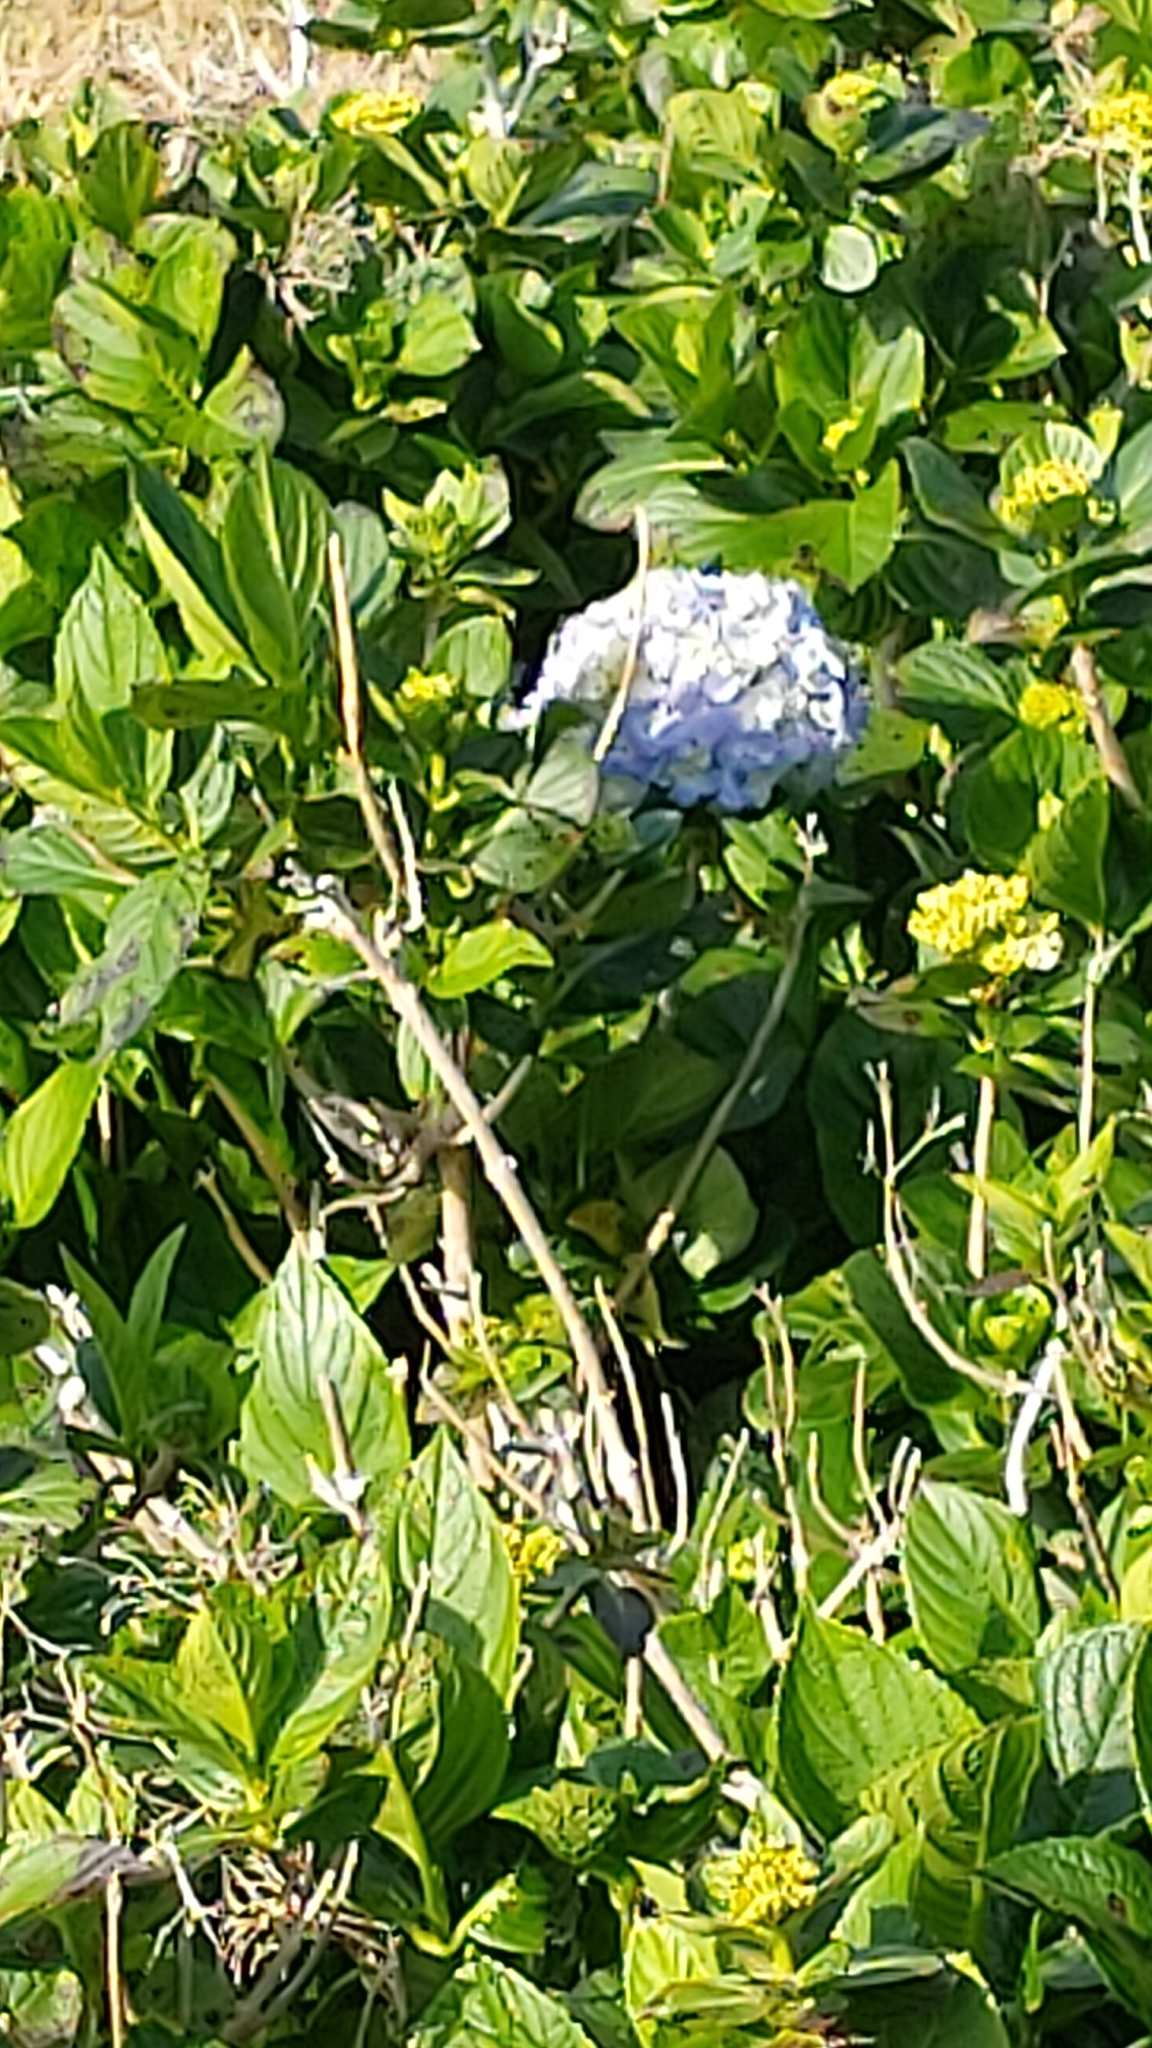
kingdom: Plantae
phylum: Tracheophyta
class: Magnoliopsida
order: Cornales
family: Hydrangeaceae
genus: Hydrangea
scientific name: Hydrangea macrophylla
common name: Hydrangea
